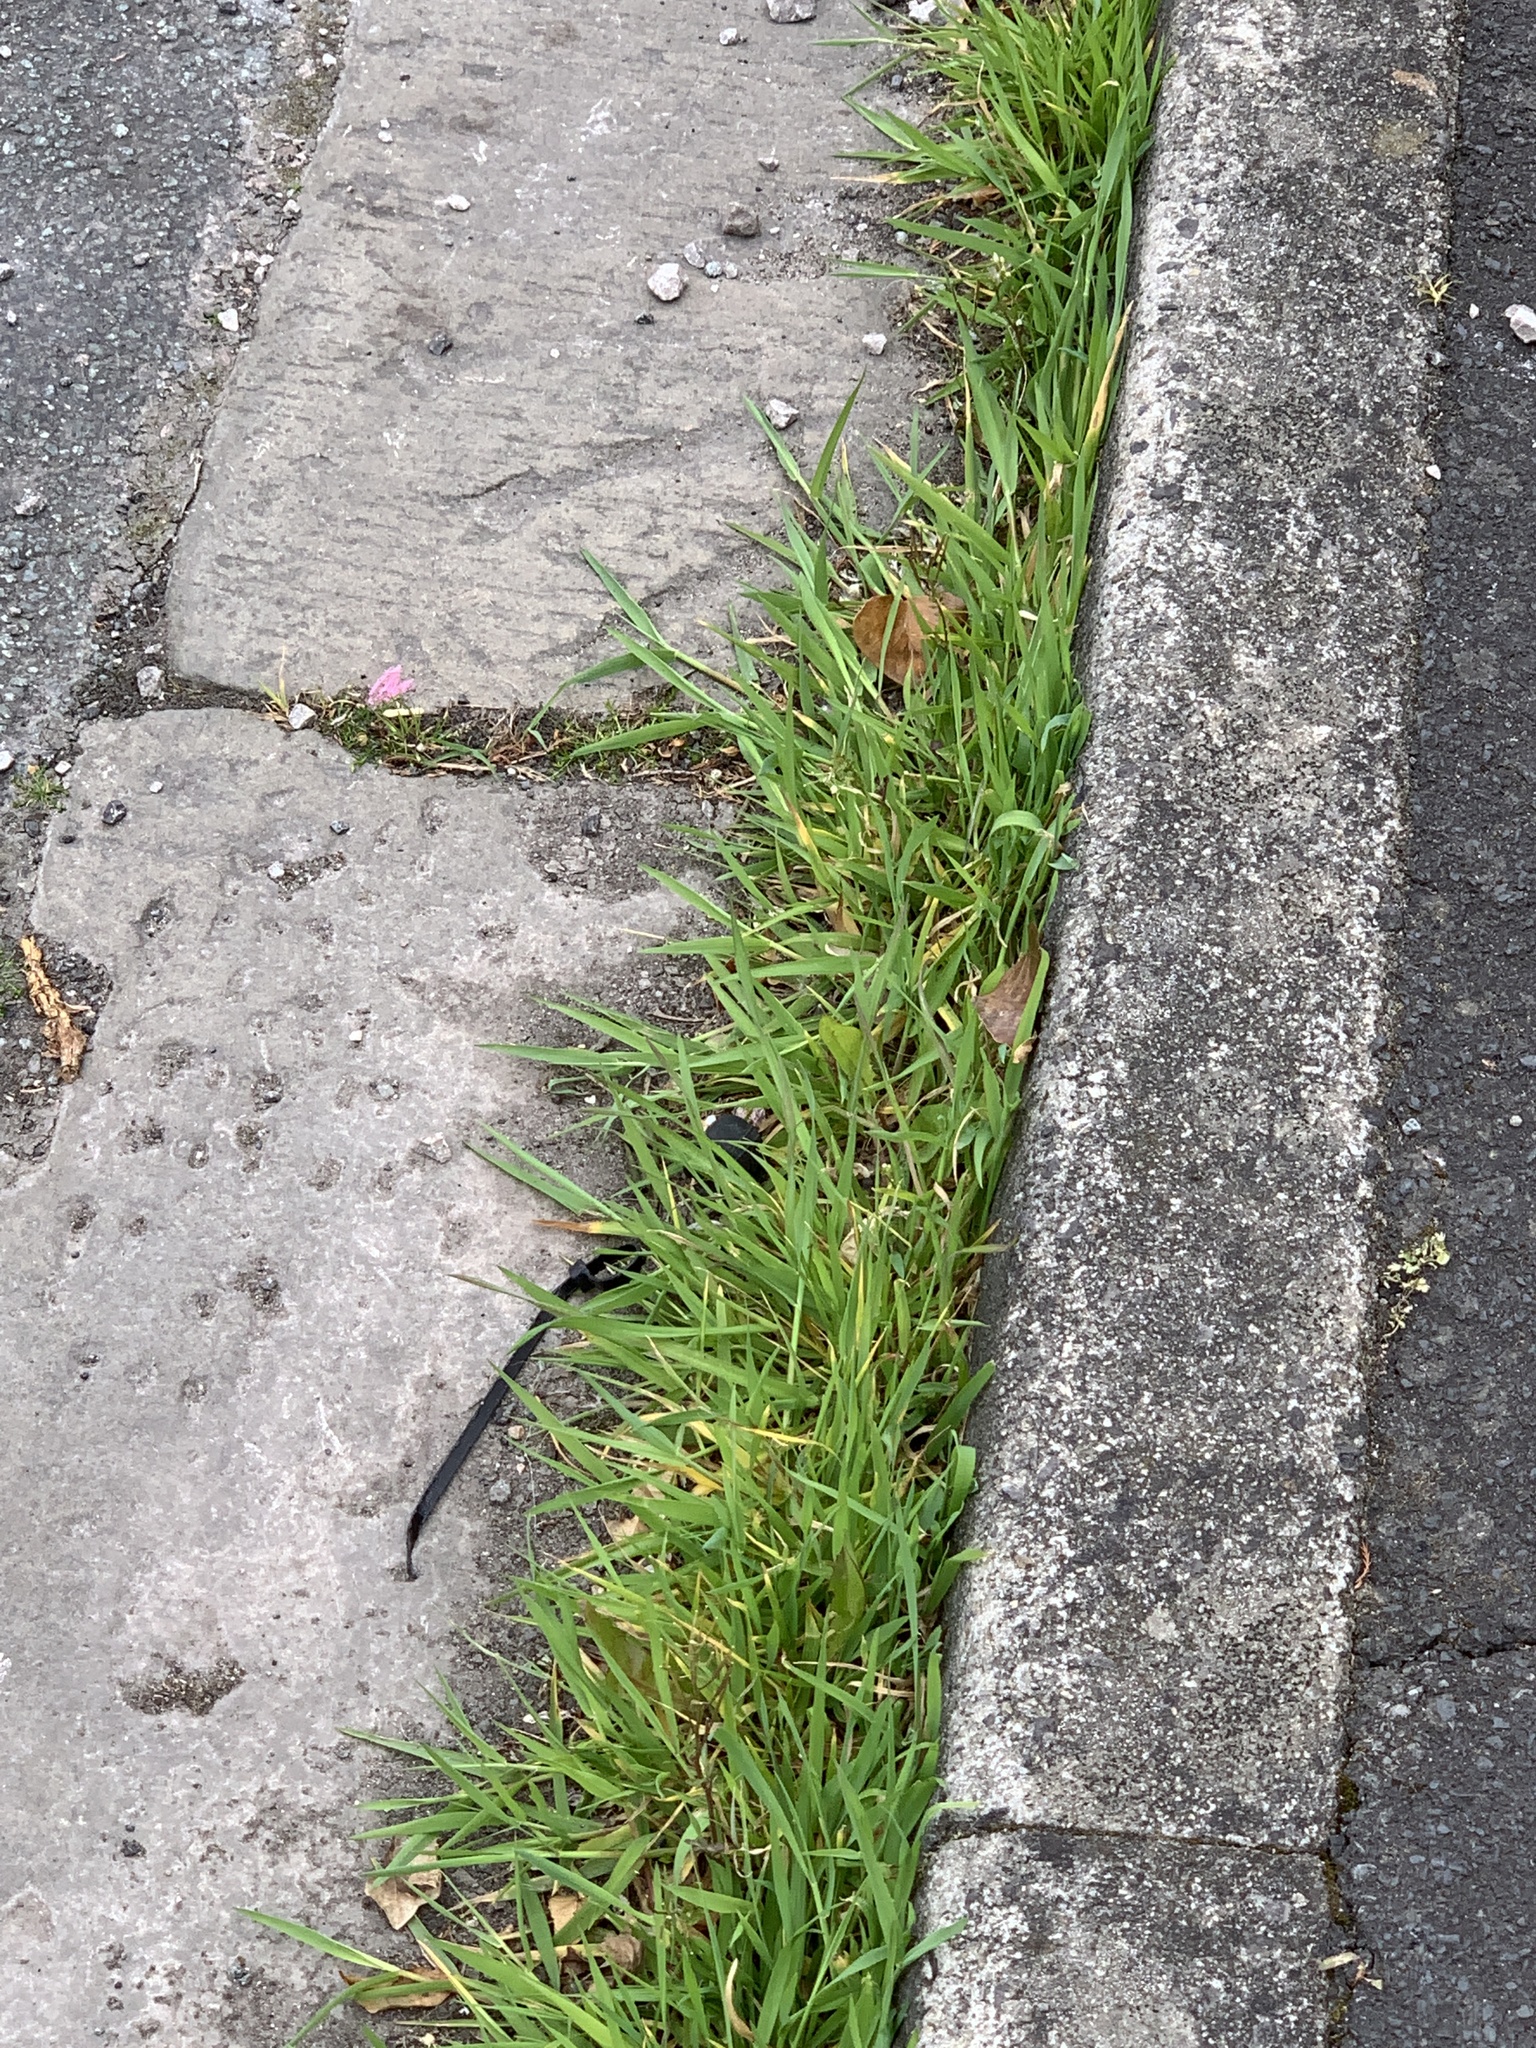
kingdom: Plantae
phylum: Tracheophyta
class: Liliopsida
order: Poales
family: Poaceae
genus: Polypogon
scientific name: Polypogon viridis
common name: Water bent
